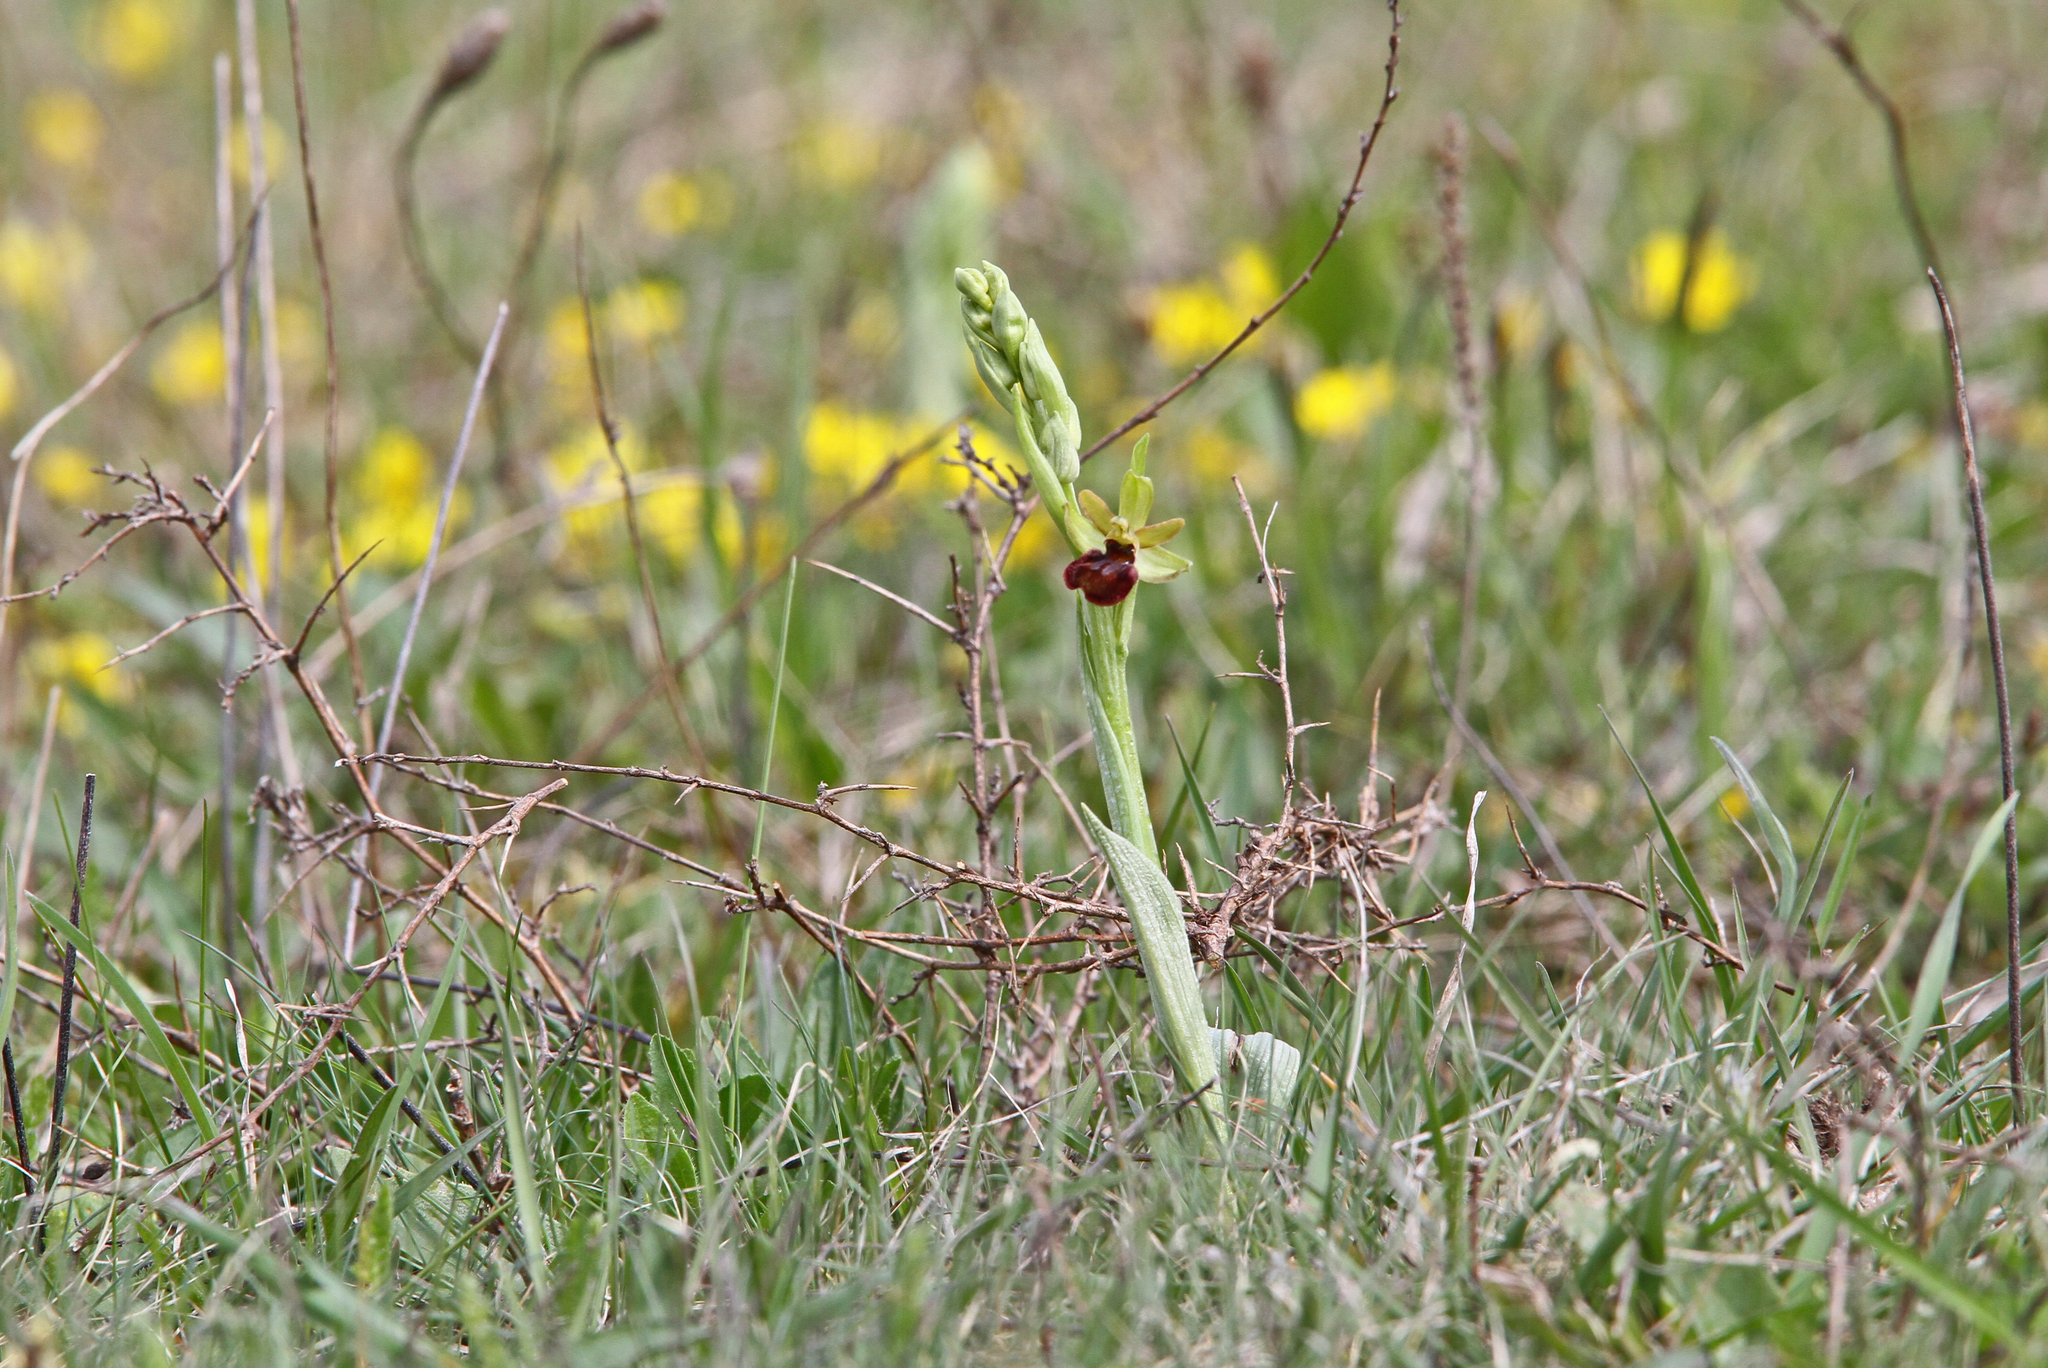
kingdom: Plantae
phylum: Tracheophyta
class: Liliopsida
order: Asparagales
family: Orchidaceae
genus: Ophrys
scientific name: Ophrys sphegodes
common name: Early spider-orchid
